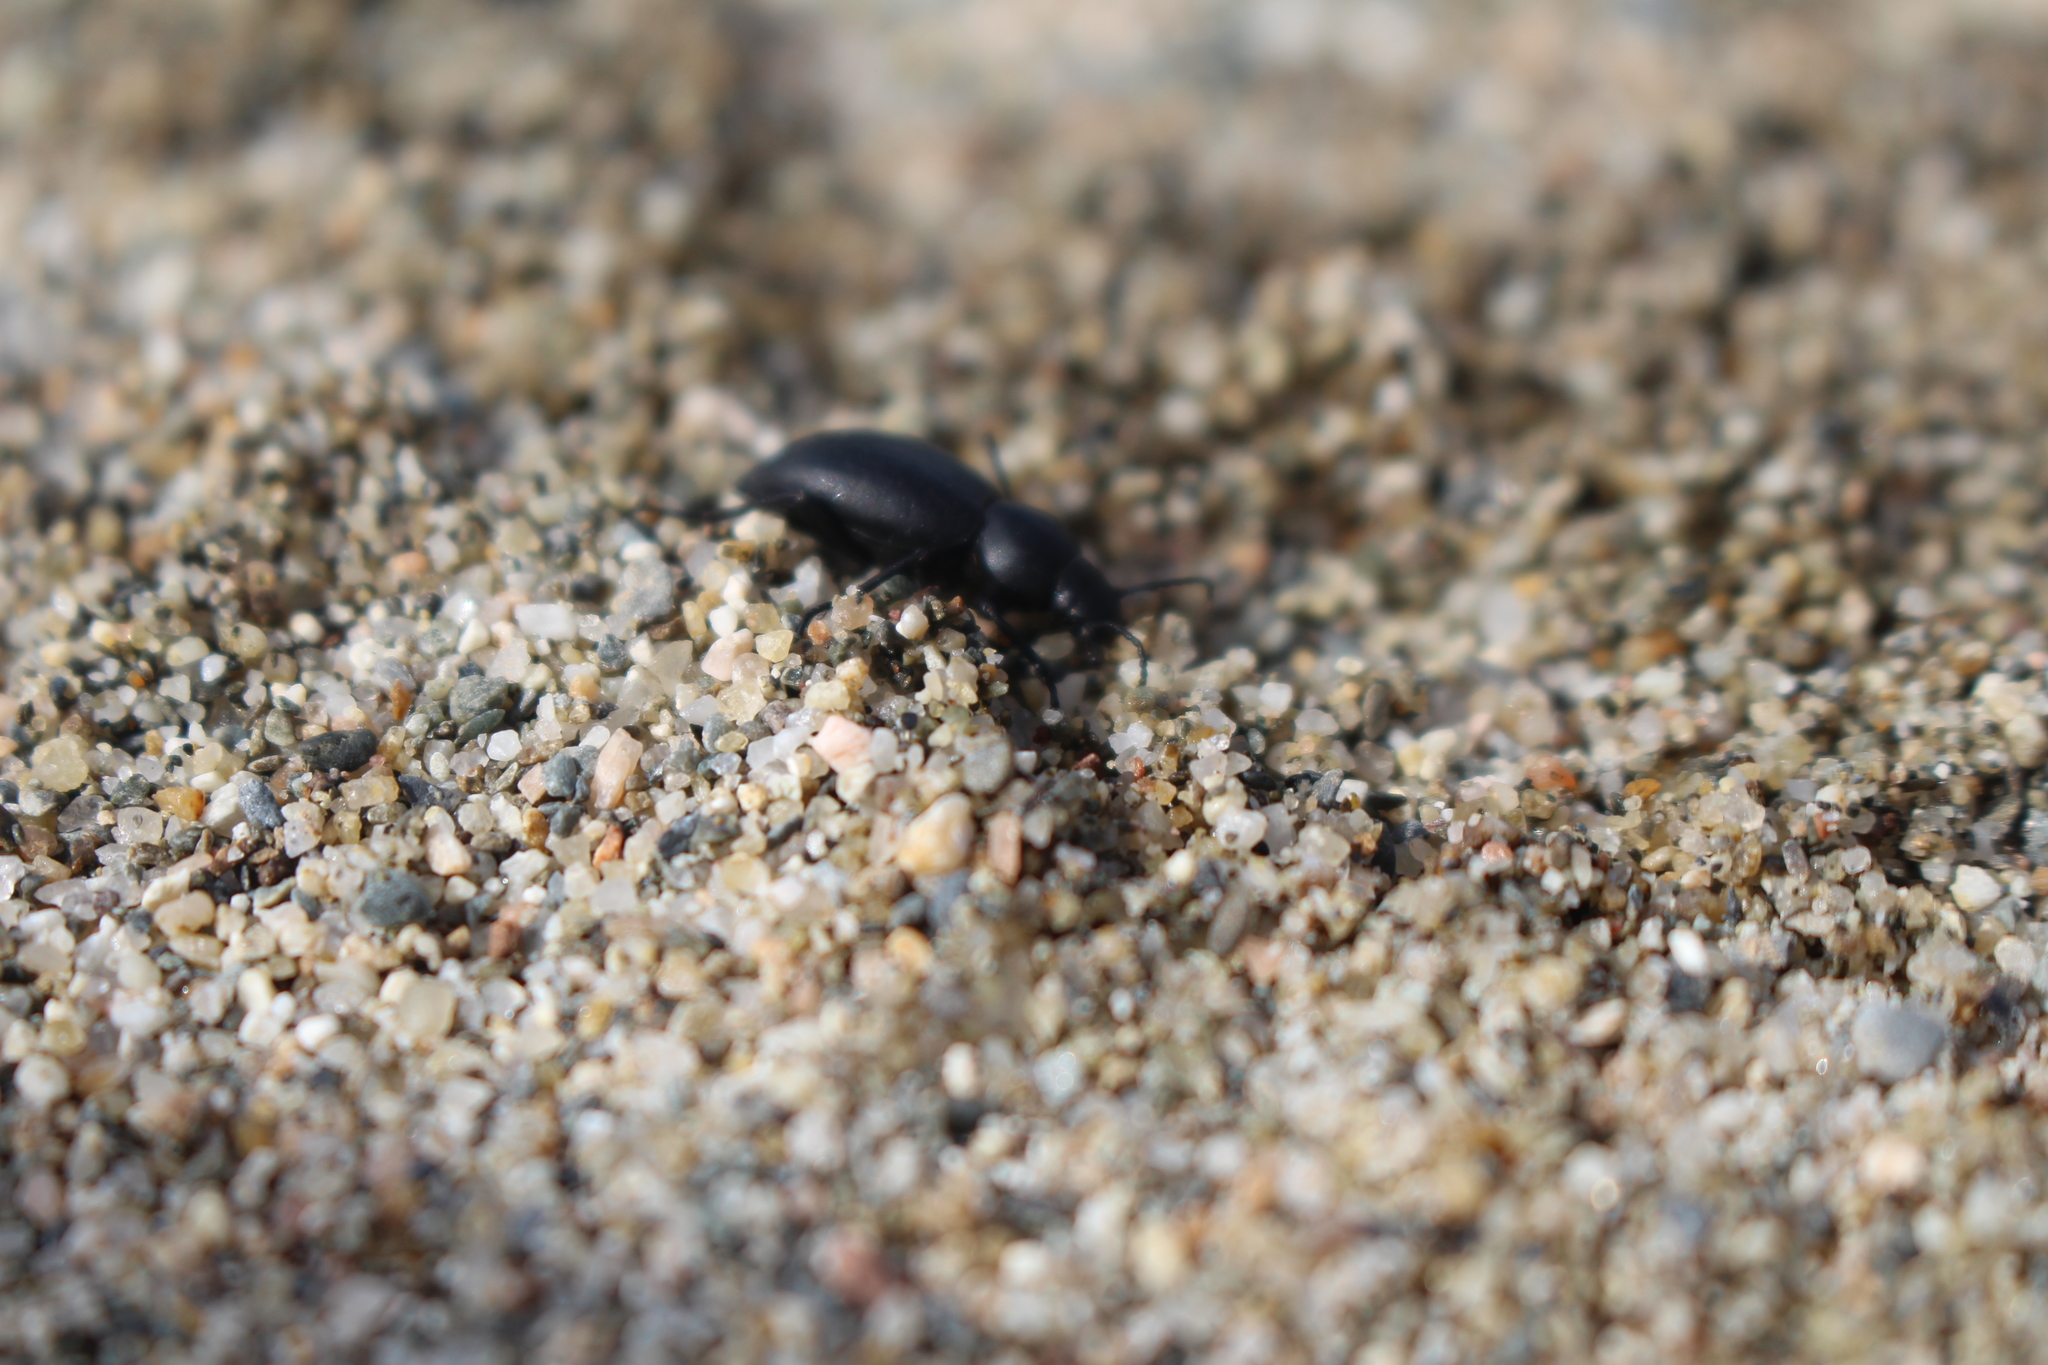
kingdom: Animalia
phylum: Arthropoda
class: Insecta
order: Coleoptera
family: Tenebrionidae
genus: Tentyria
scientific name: Tentyria mucronata
